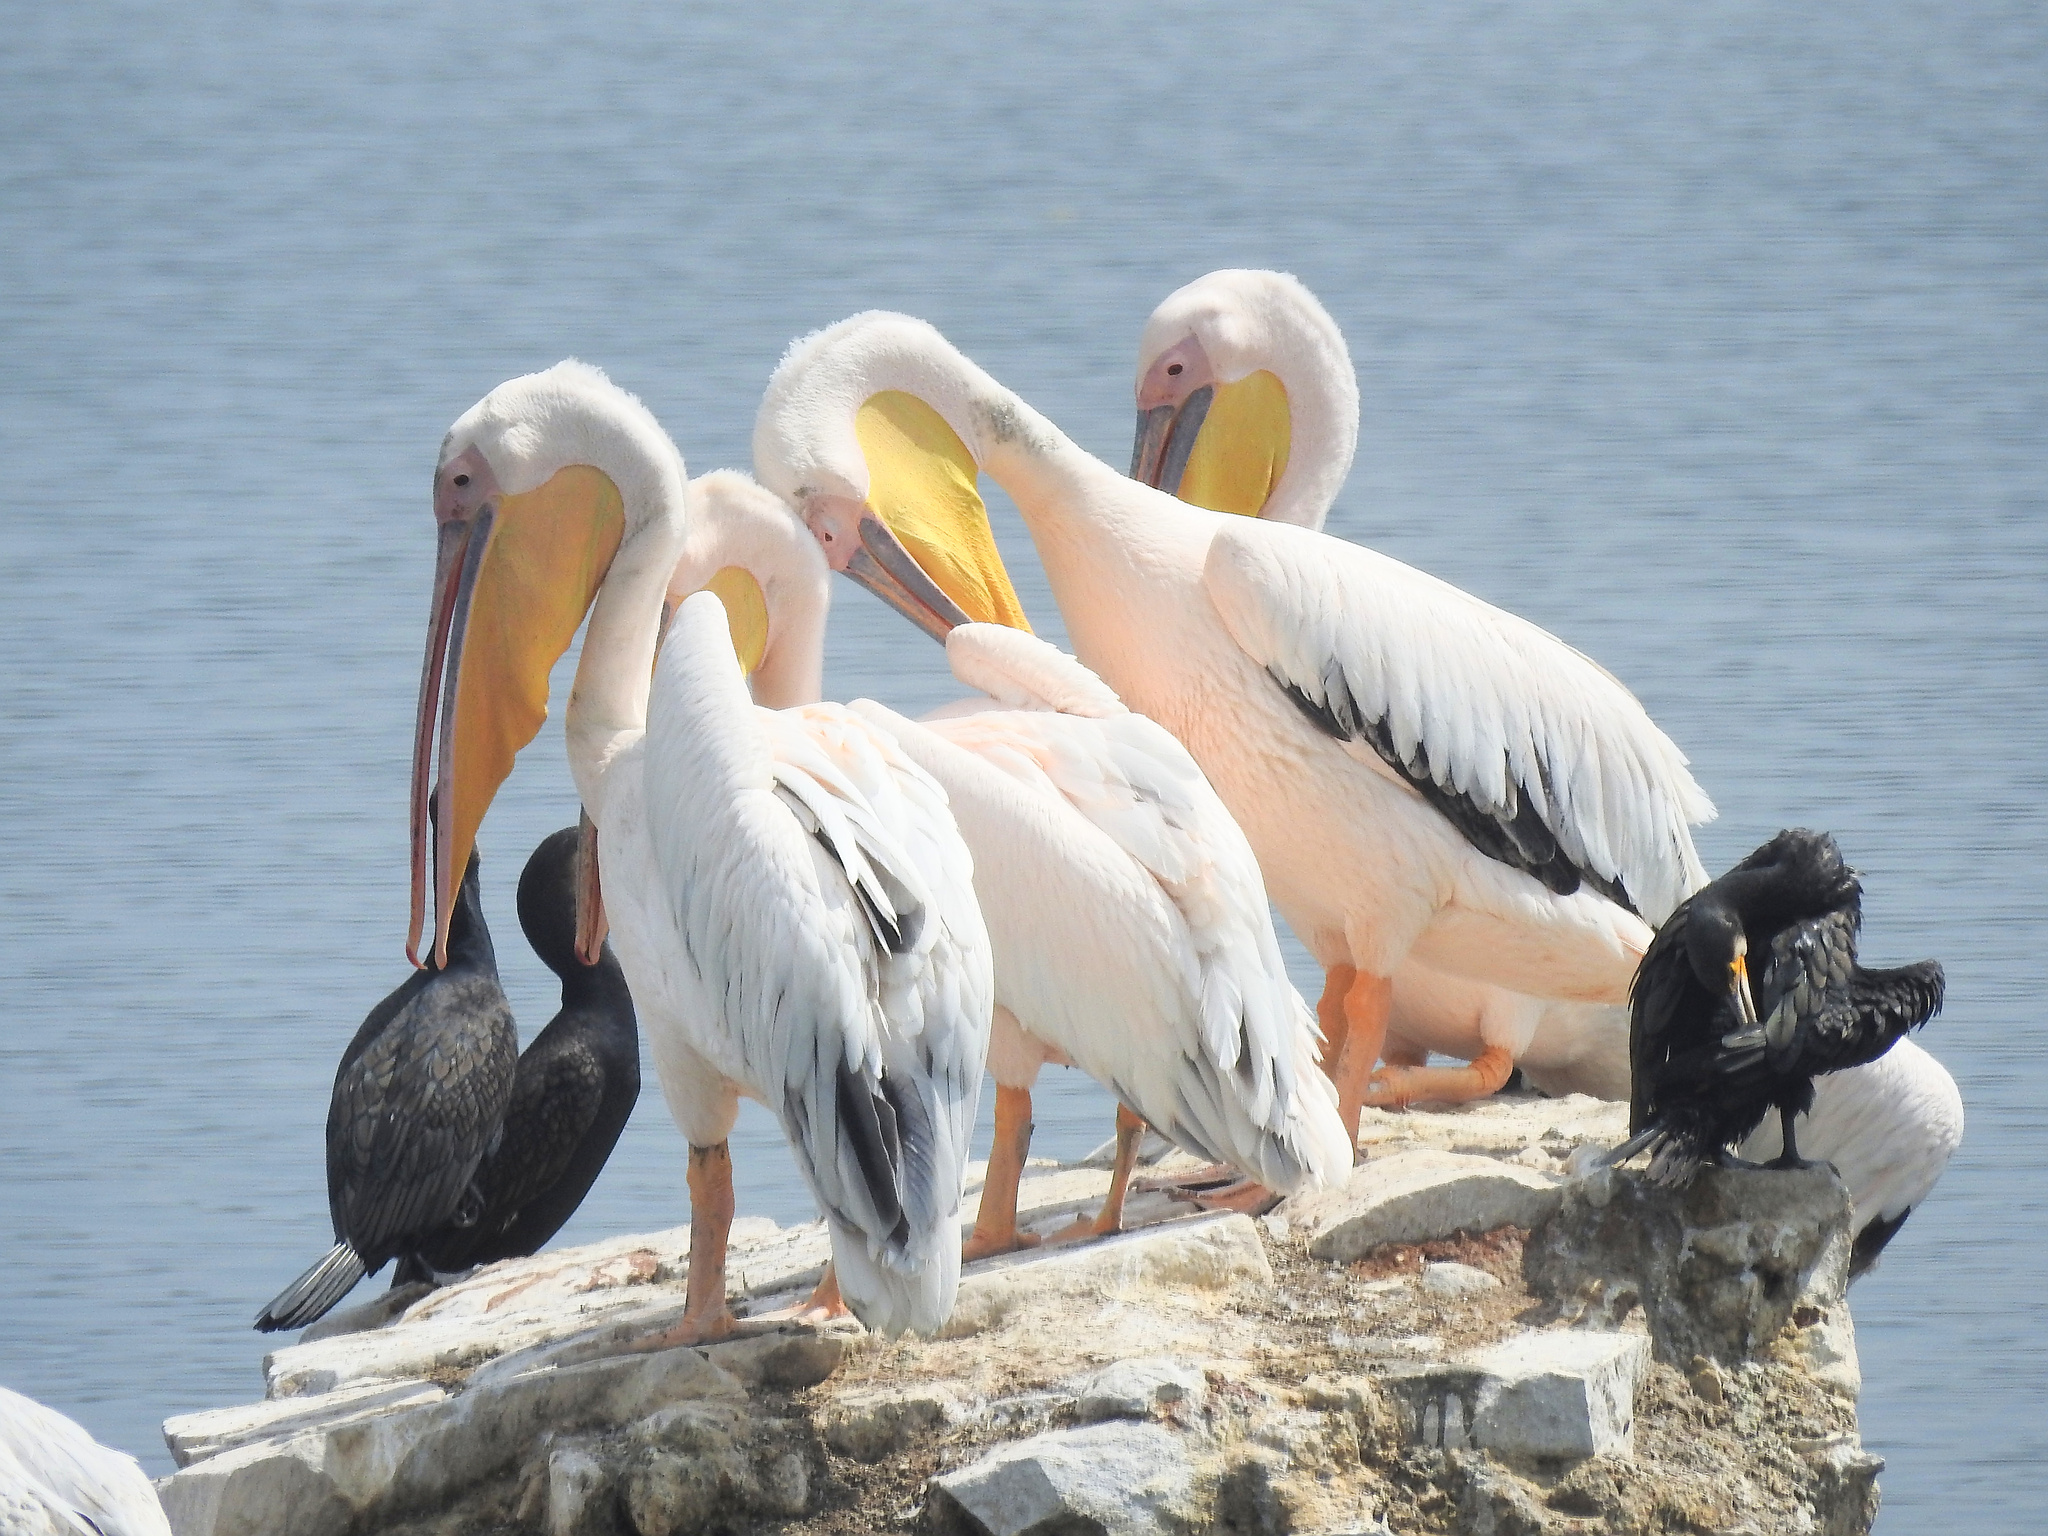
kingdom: Animalia
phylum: Chordata
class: Aves
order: Pelecaniformes
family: Pelecanidae
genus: Pelecanus
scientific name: Pelecanus onocrotalus
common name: Great white pelican
